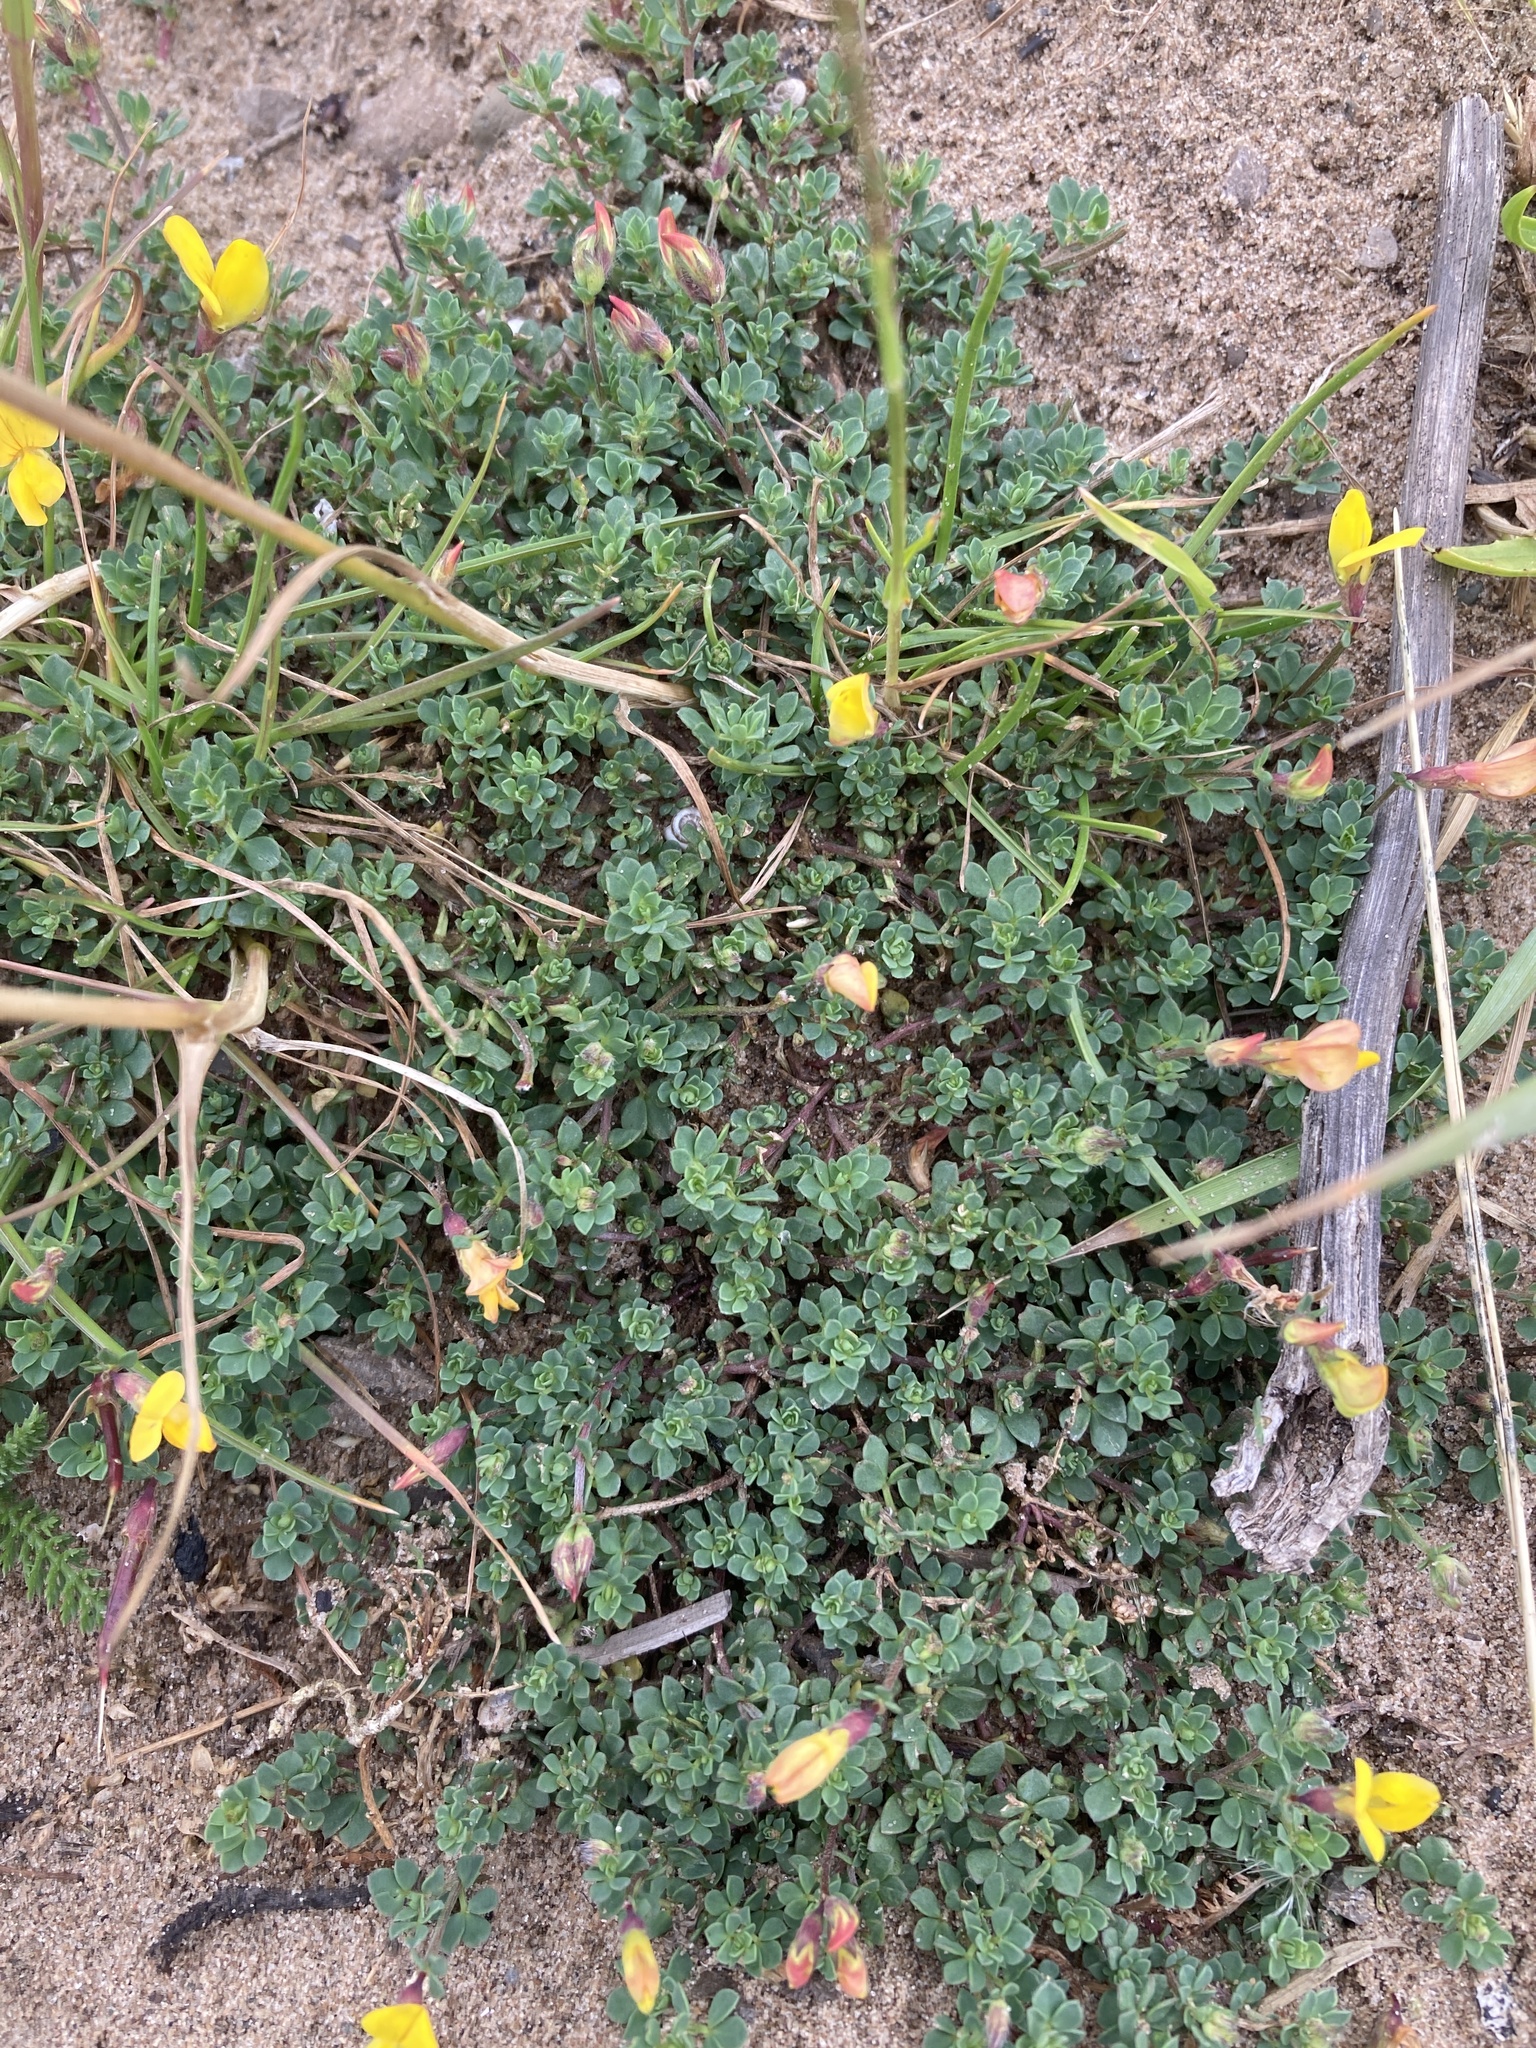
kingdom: Plantae
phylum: Tracheophyta
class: Magnoliopsida
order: Fabales
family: Fabaceae
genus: Lotus
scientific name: Lotus corniculatus
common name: Common bird's-foot-trefoil
